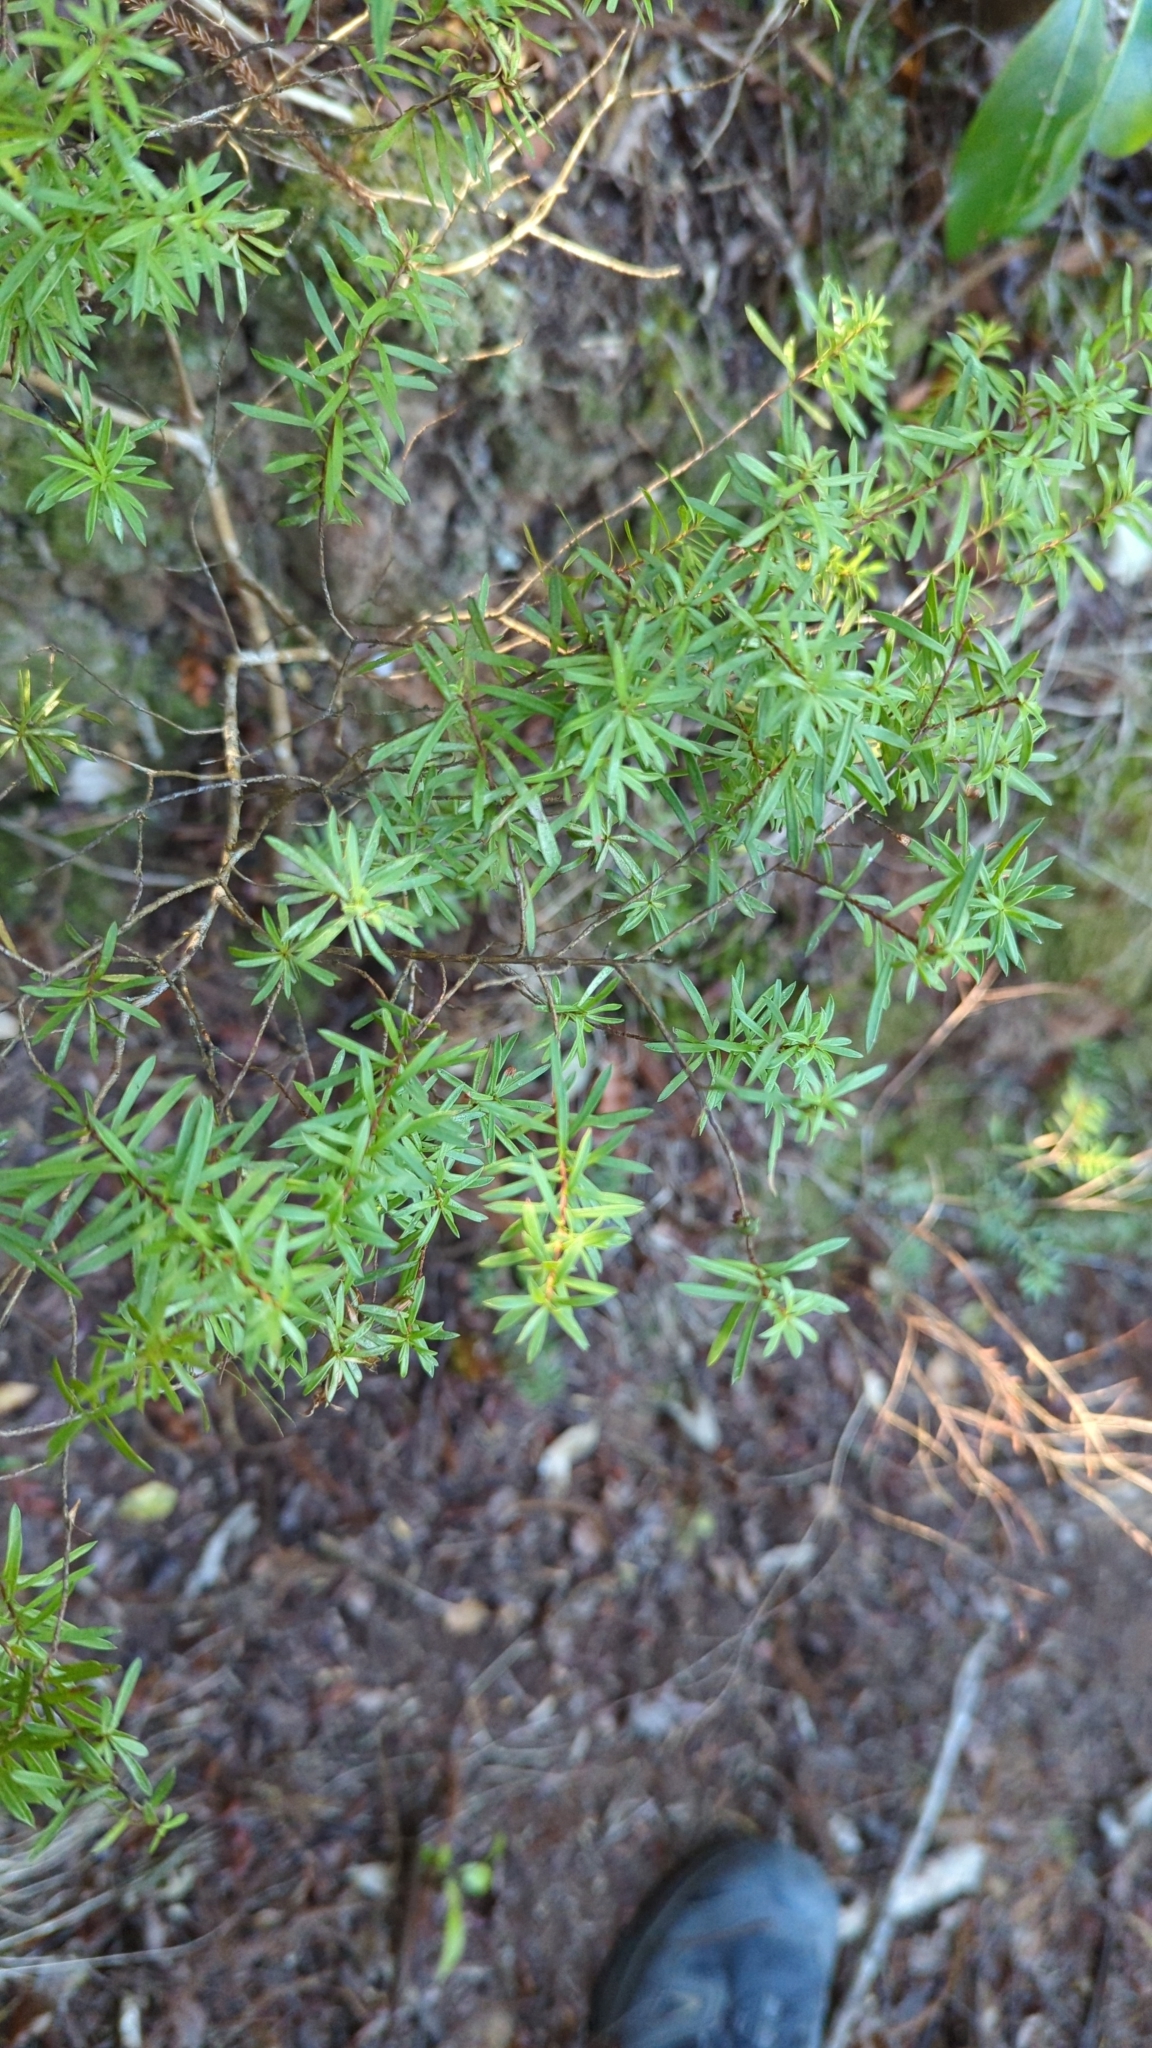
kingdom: Plantae
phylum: Tracheophyta
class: Magnoliopsida
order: Ericales
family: Ericaceae
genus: Leucopogon
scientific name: Leucopogon fasciculatus
